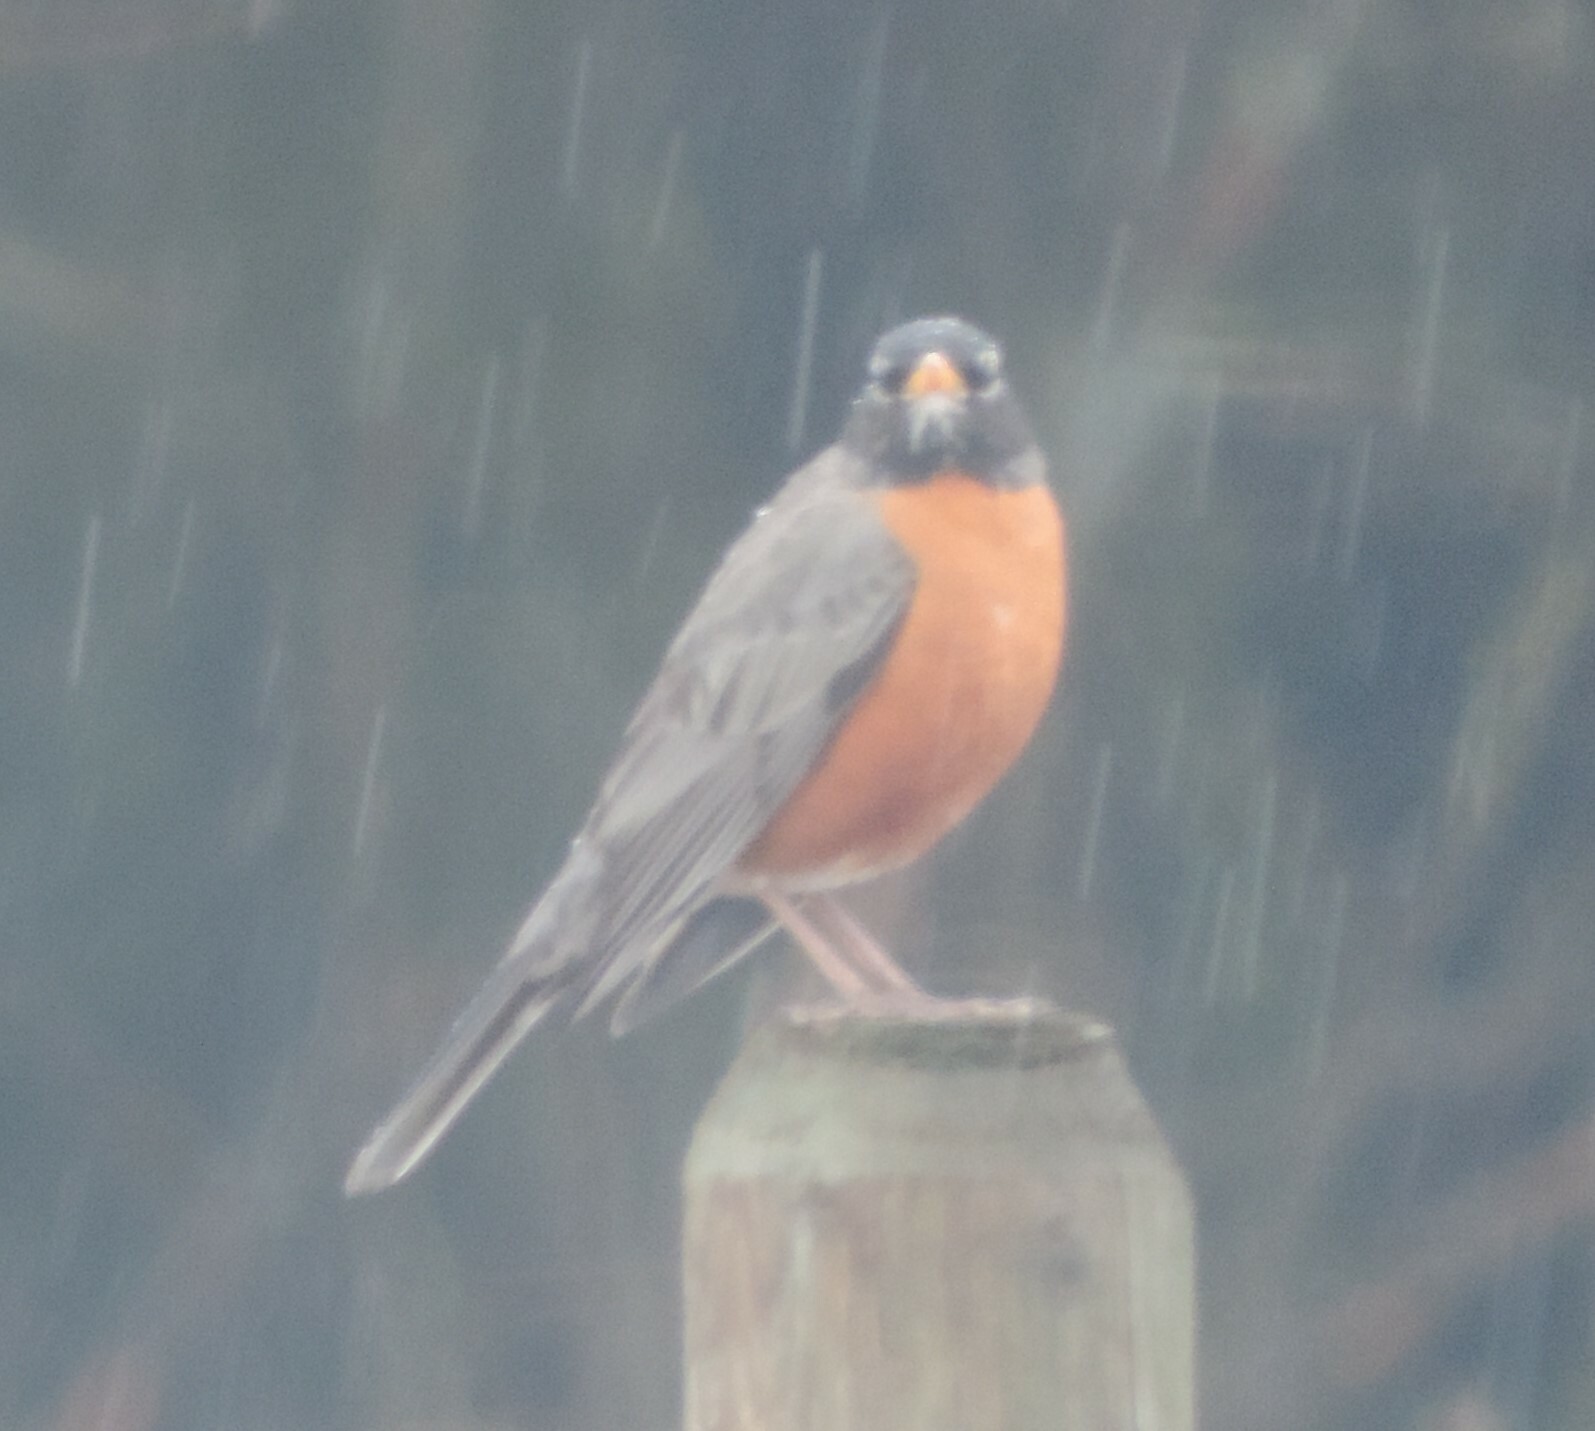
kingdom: Animalia
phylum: Chordata
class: Aves
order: Passeriformes
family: Turdidae
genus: Turdus
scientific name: Turdus migratorius
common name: American robin
